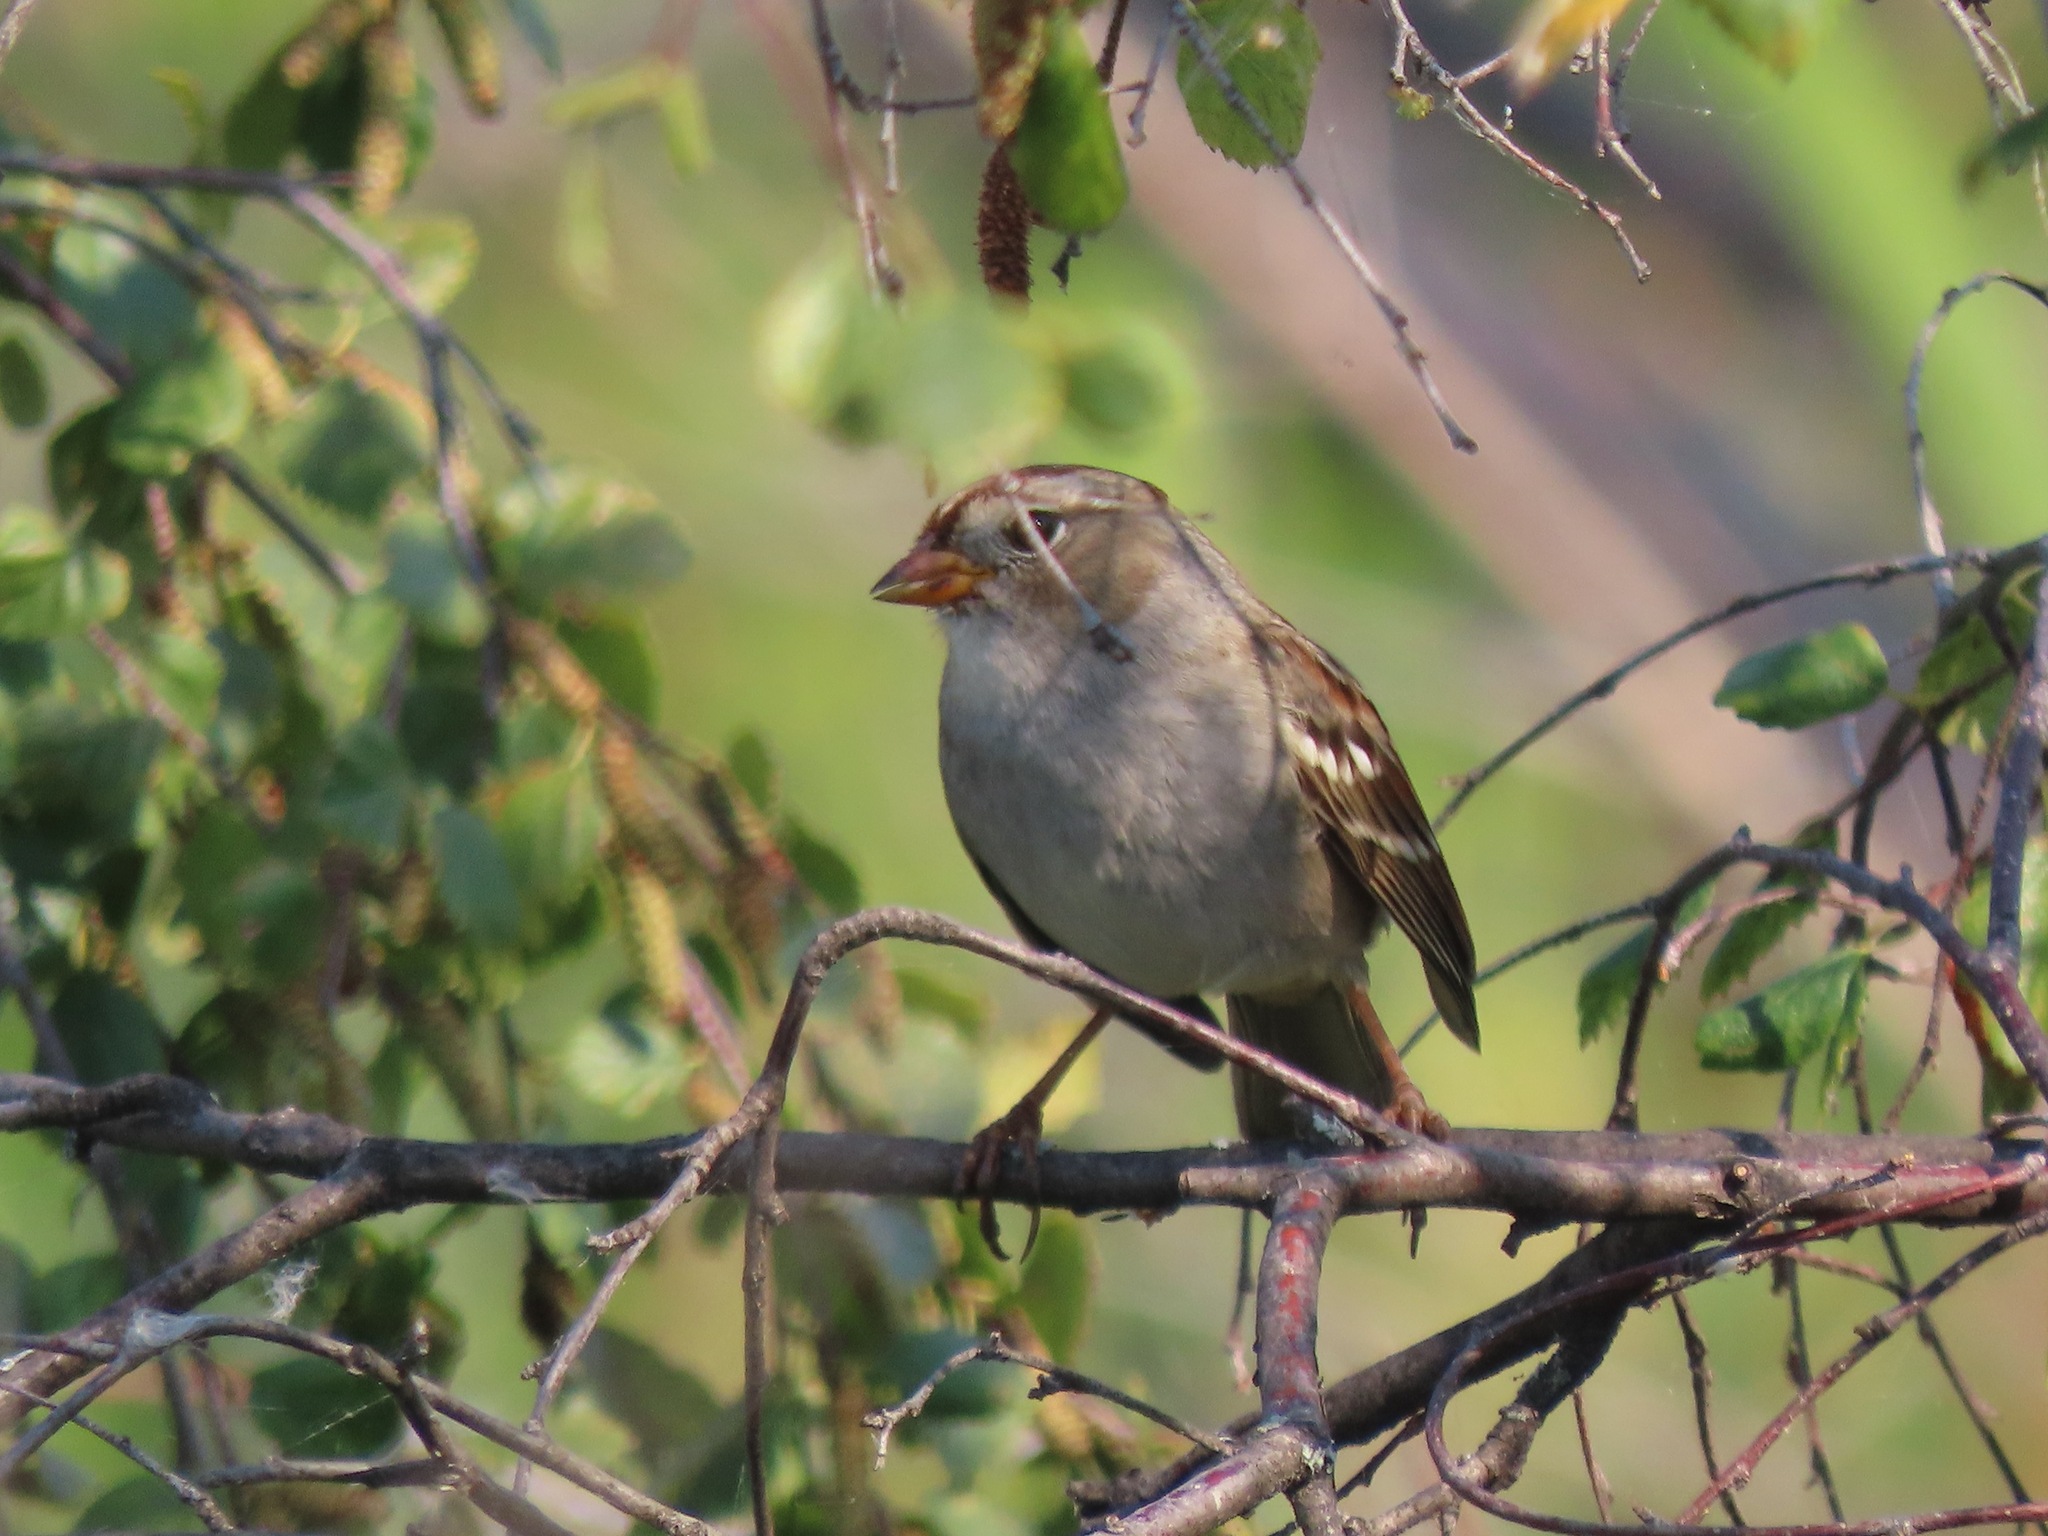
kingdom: Animalia
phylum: Chordata
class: Aves
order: Passeriformes
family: Passerellidae
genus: Zonotrichia
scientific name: Zonotrichia leucophrys
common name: White-crowned sparrow
